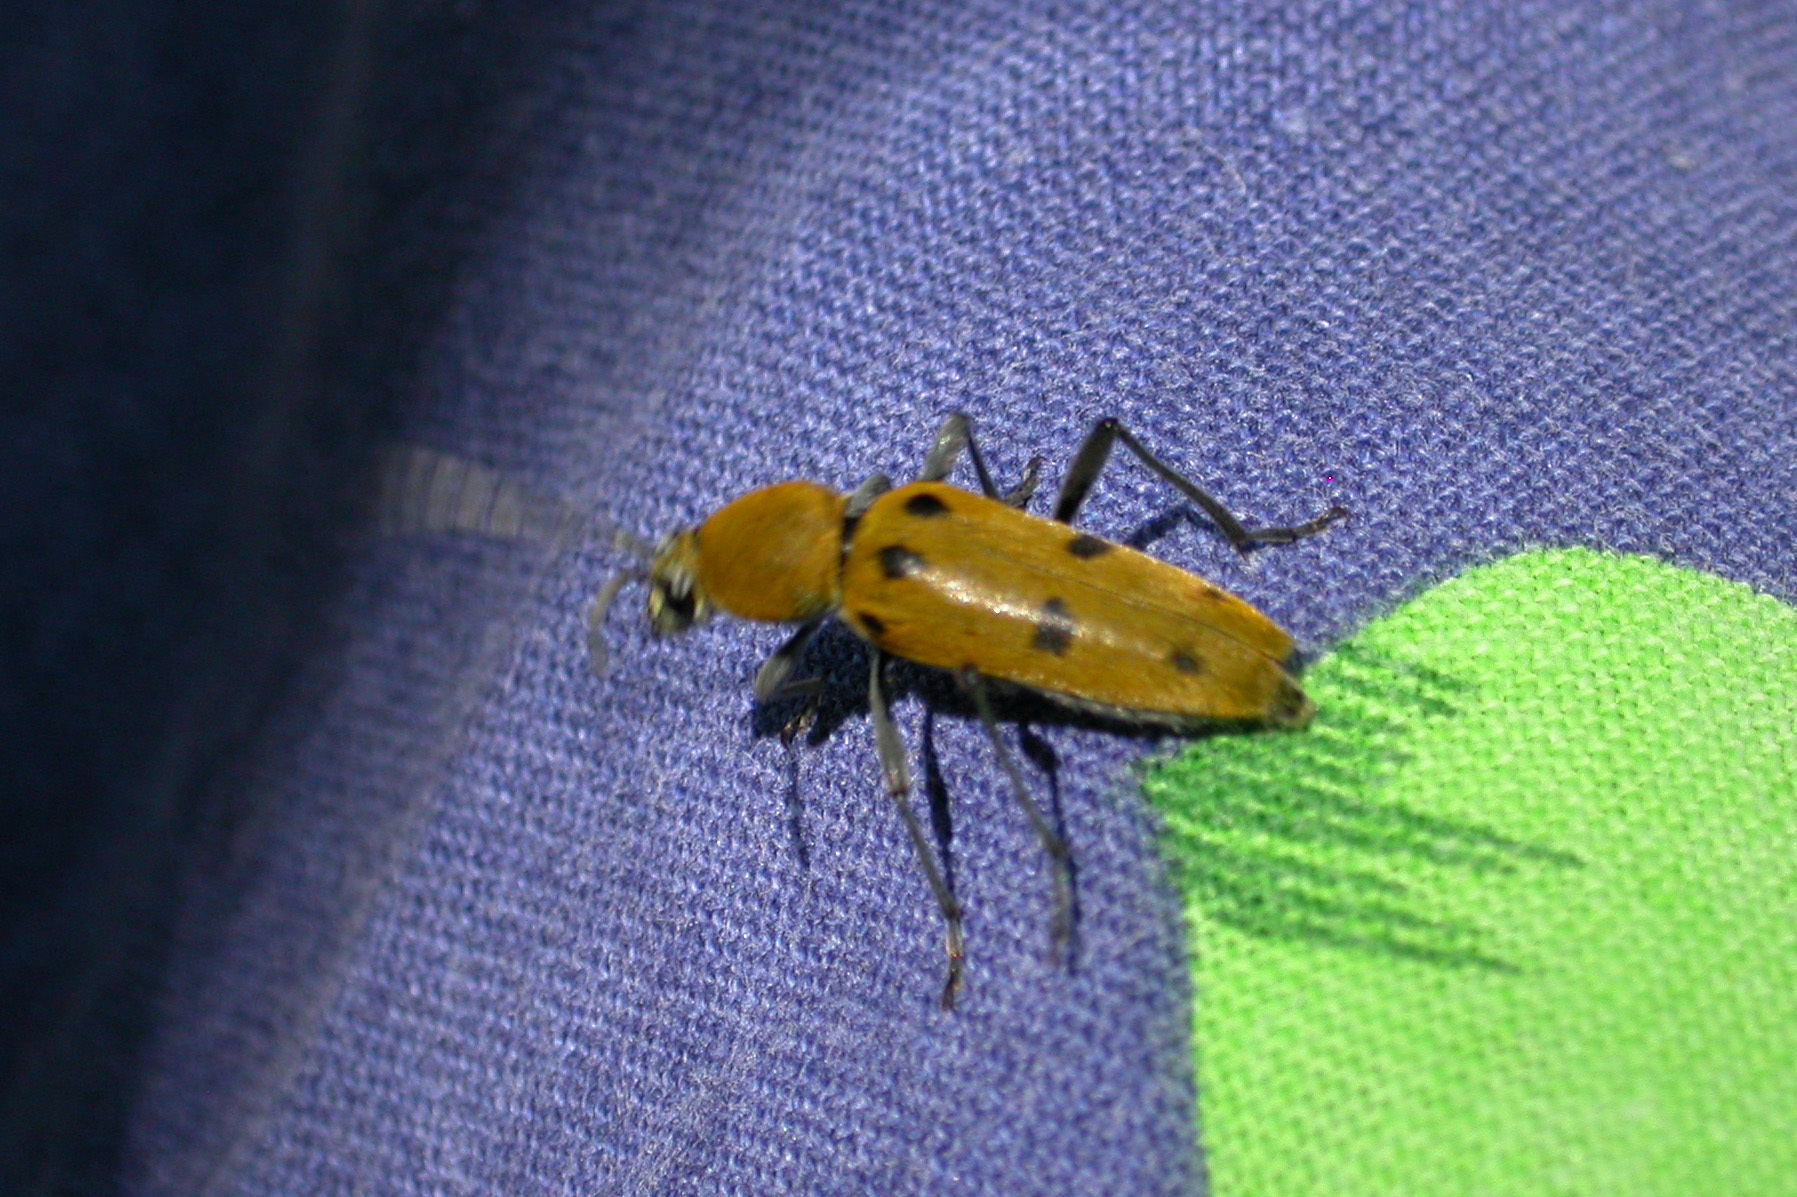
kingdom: Animalia
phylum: Arthropoda
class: Insecta
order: Coleoptera
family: Cerambycidae
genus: Chlorophorus
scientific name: Chlorophorus glabromaculatus
